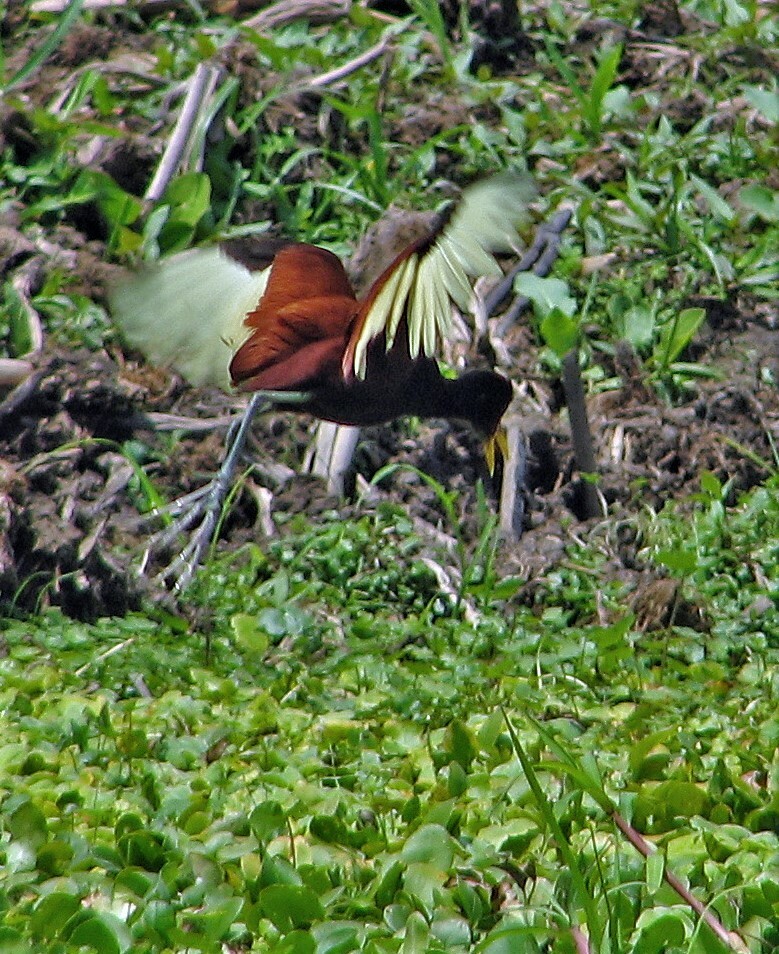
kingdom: Animalia
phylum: Chordata
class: Aves
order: Charadriiformes
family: Jacanidae
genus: Jacana
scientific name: Jacana jacana
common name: Wattled jacana
